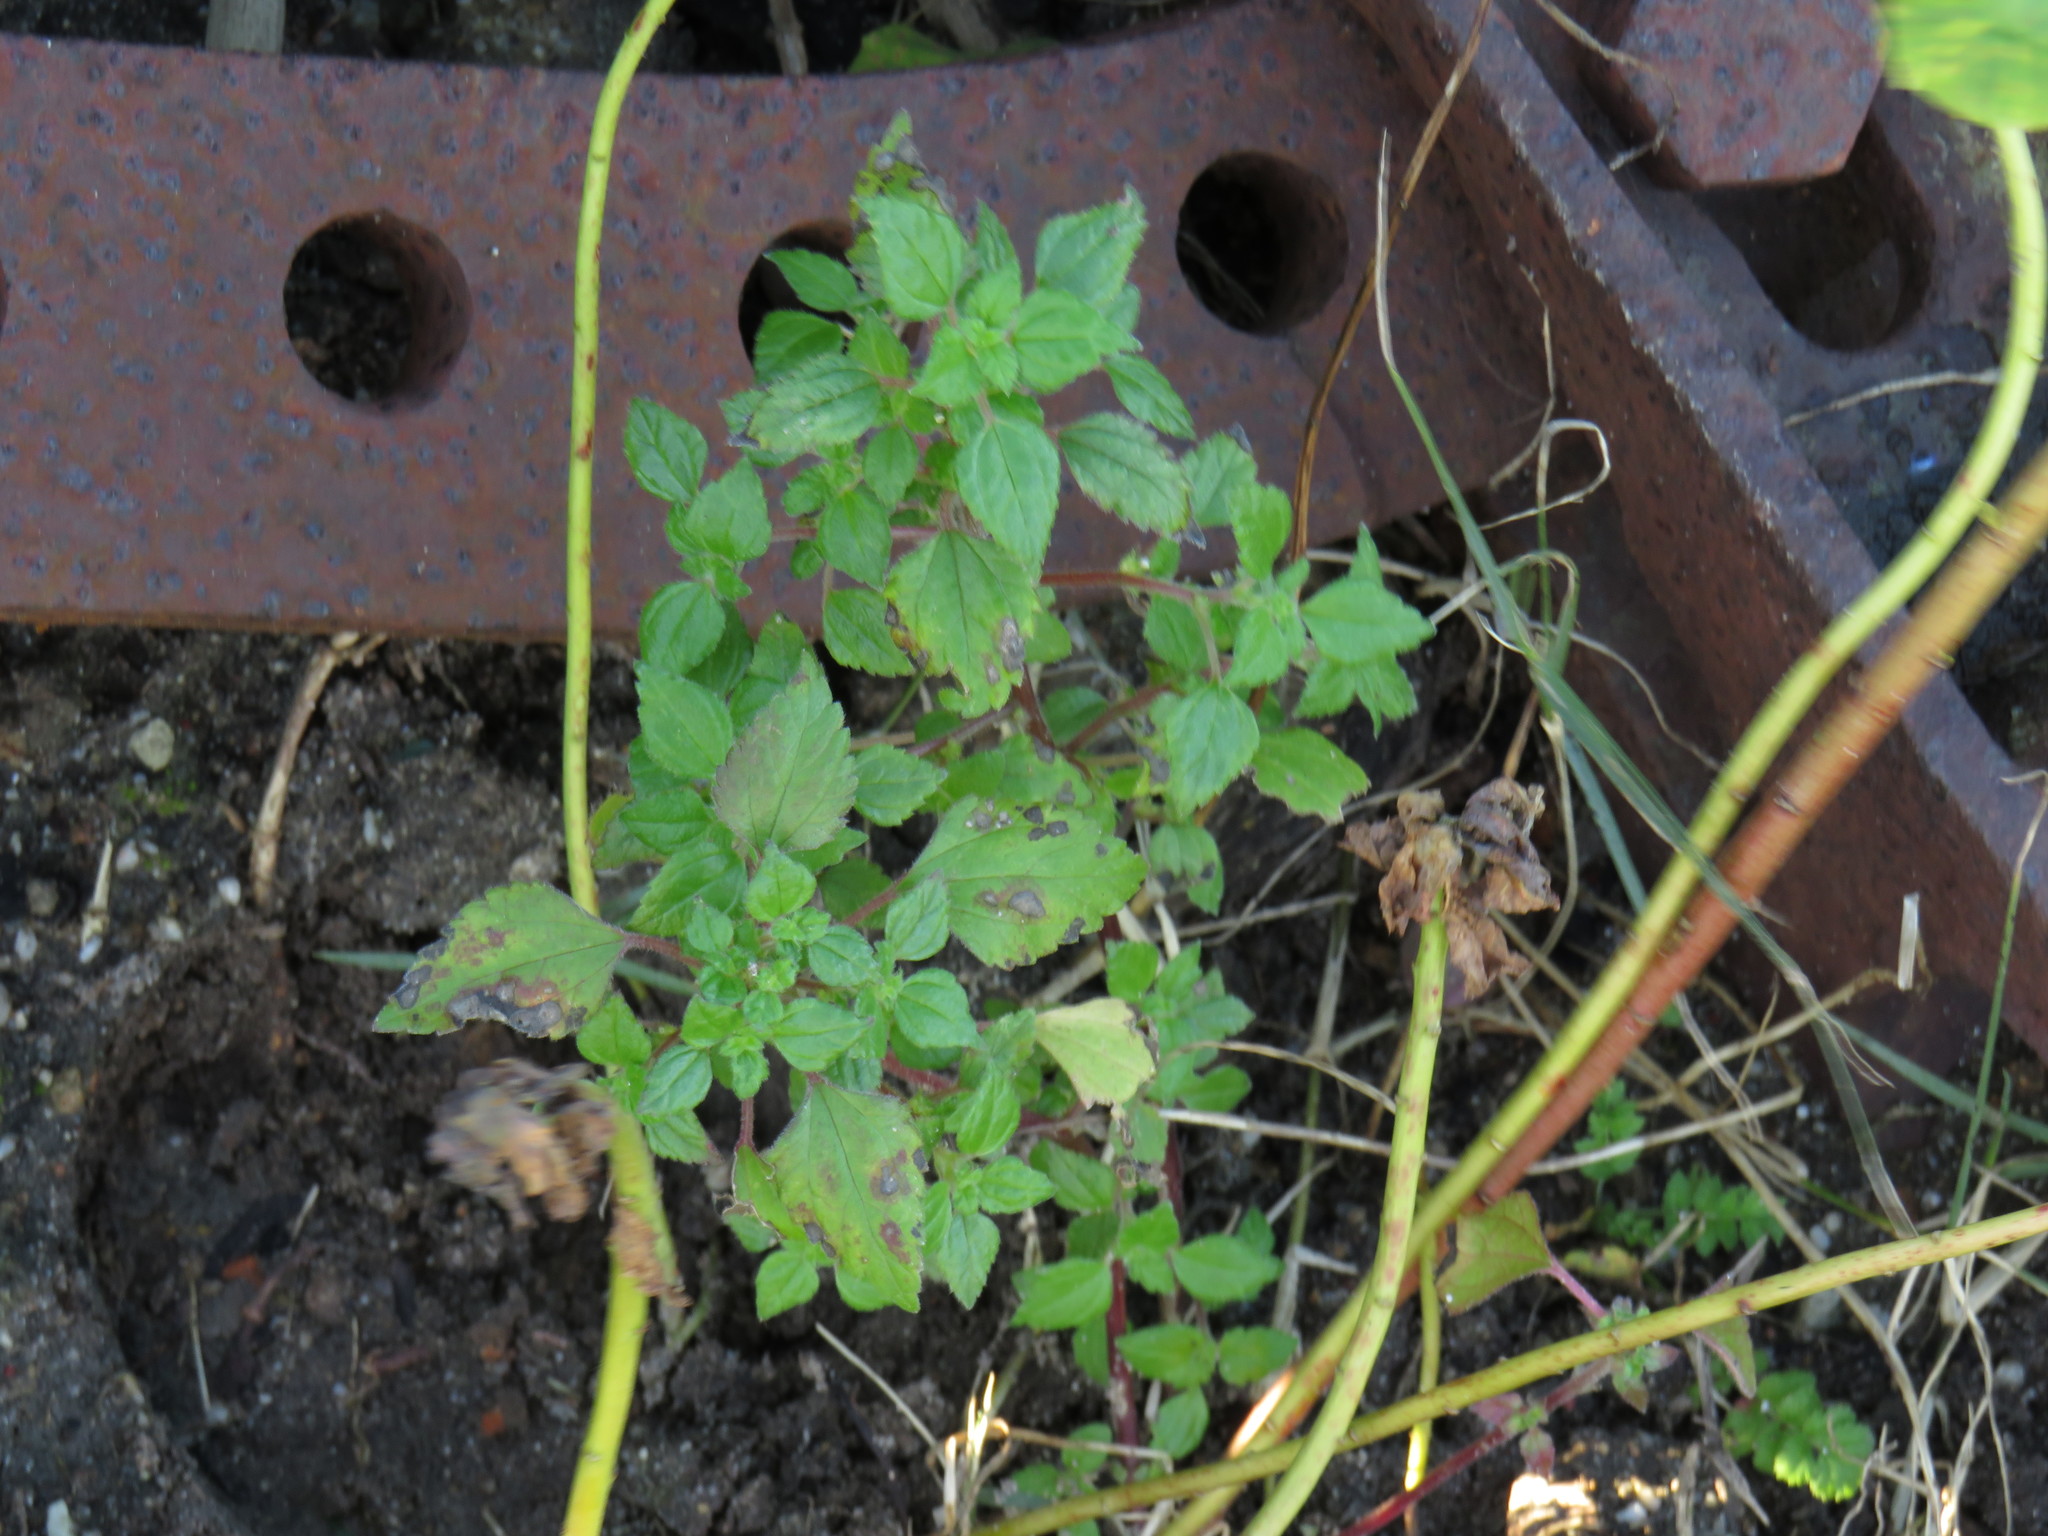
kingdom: Plantae
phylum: Tracheophyta
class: Magnoliopsida
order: Rosales
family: Urticaceae
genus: Didymodoxa
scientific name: Didymodoxa capensis
